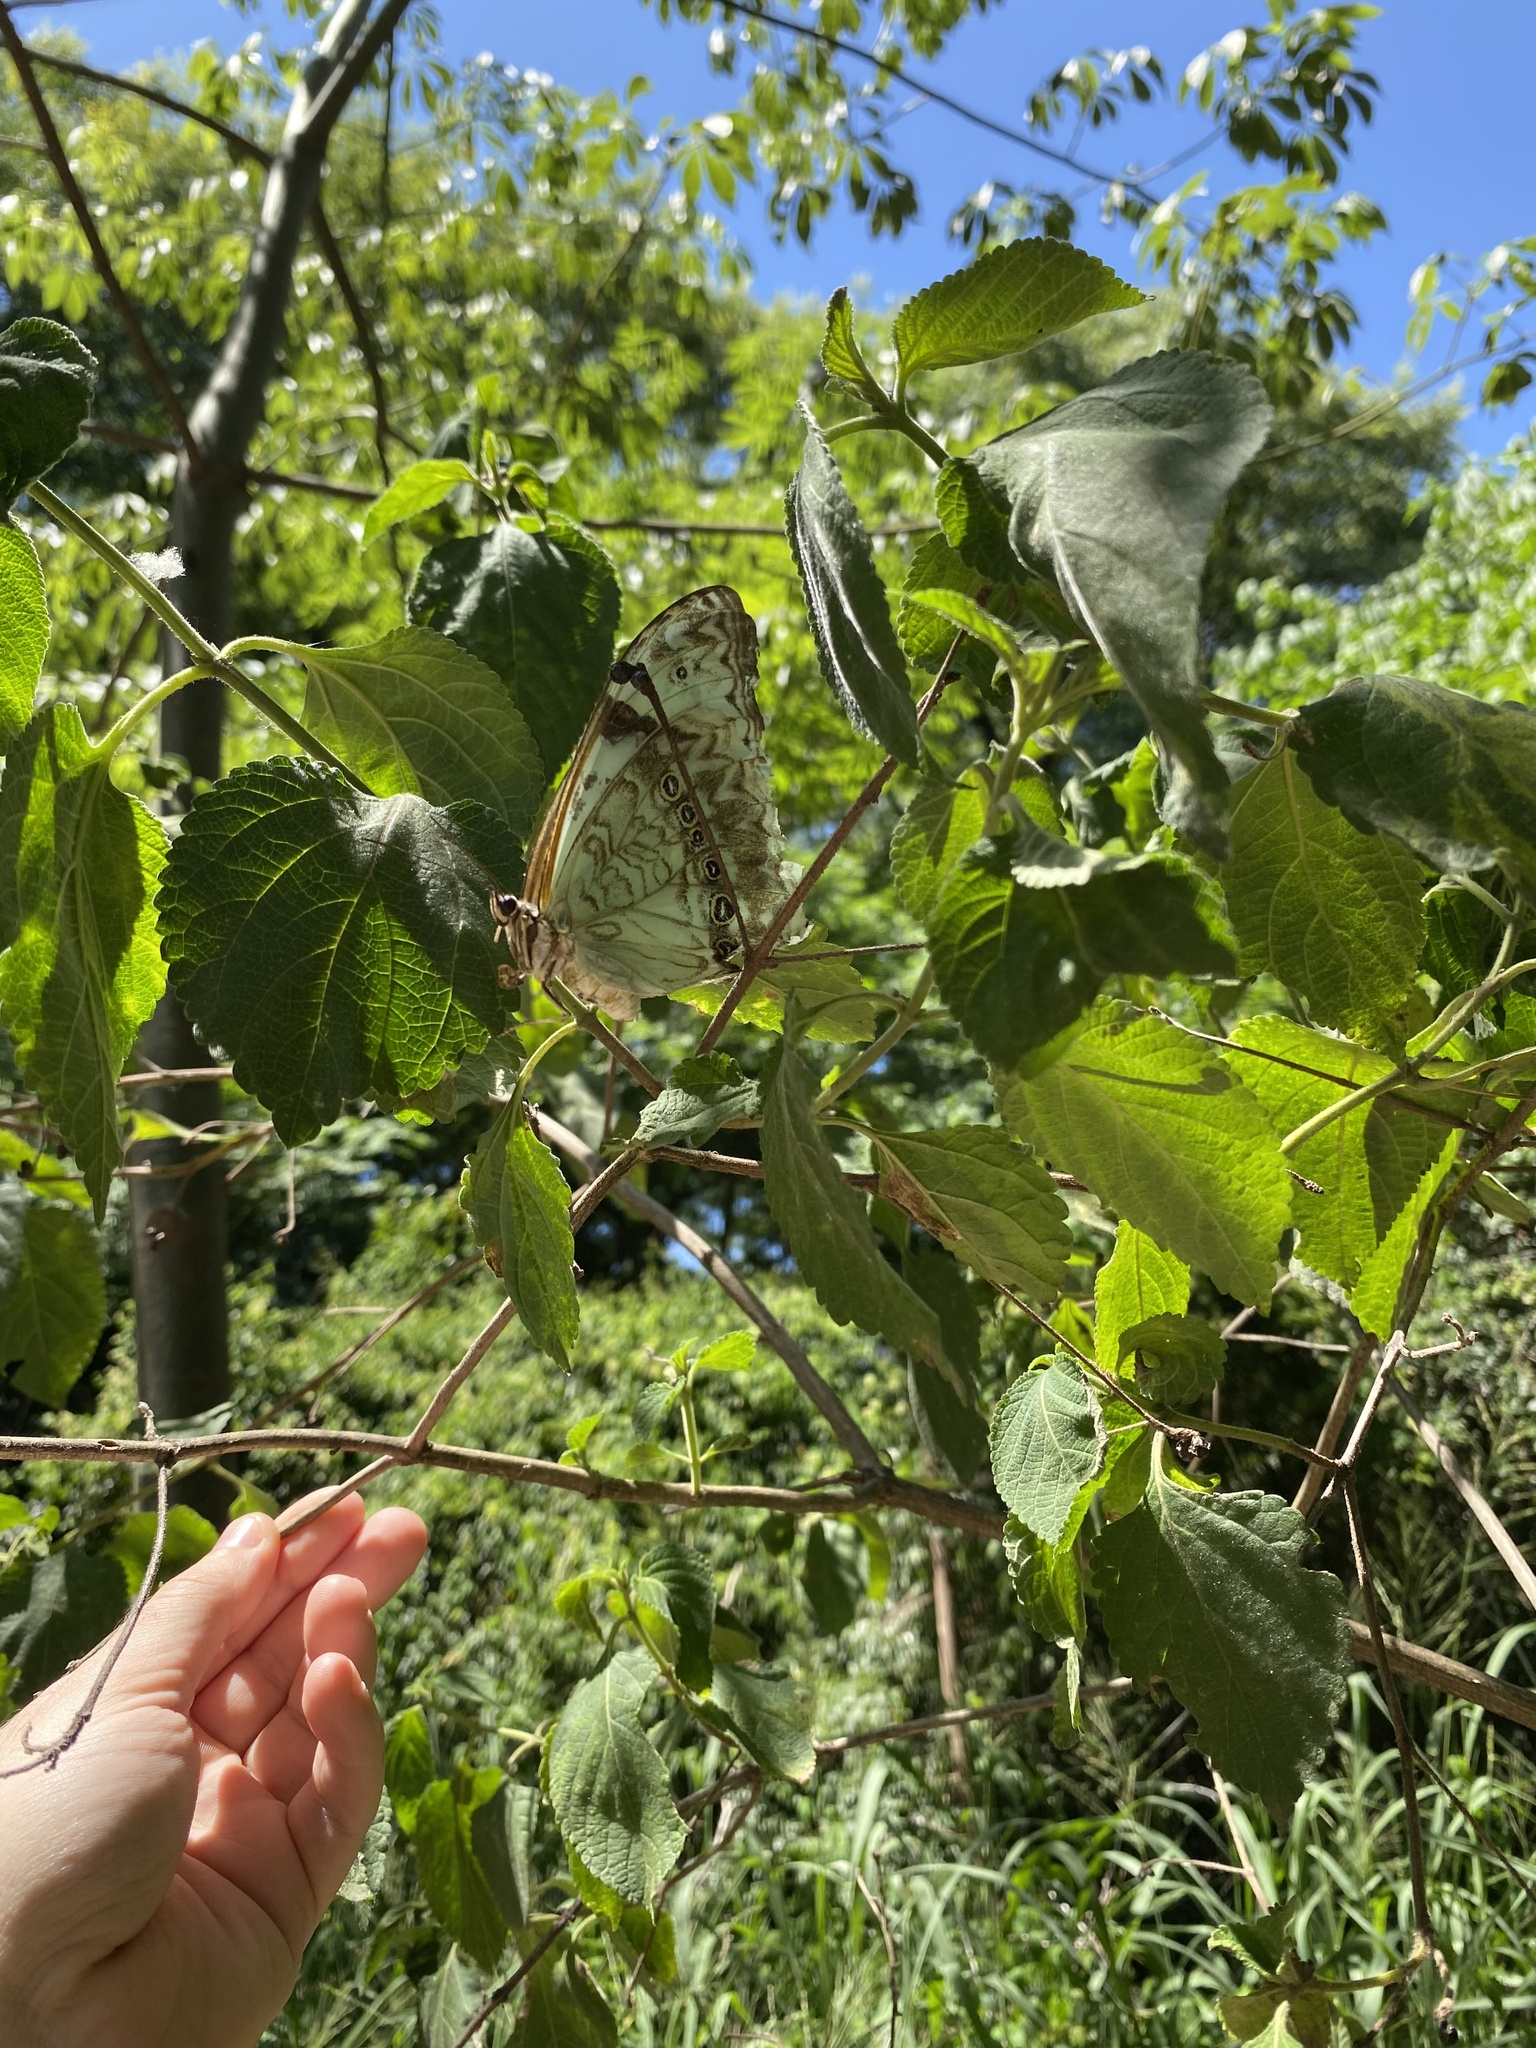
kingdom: Animalia
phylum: Arthropoda
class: Insecta
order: Lepidoptera
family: Nymphalidae
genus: Morpho
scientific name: Morpho epistrophus
